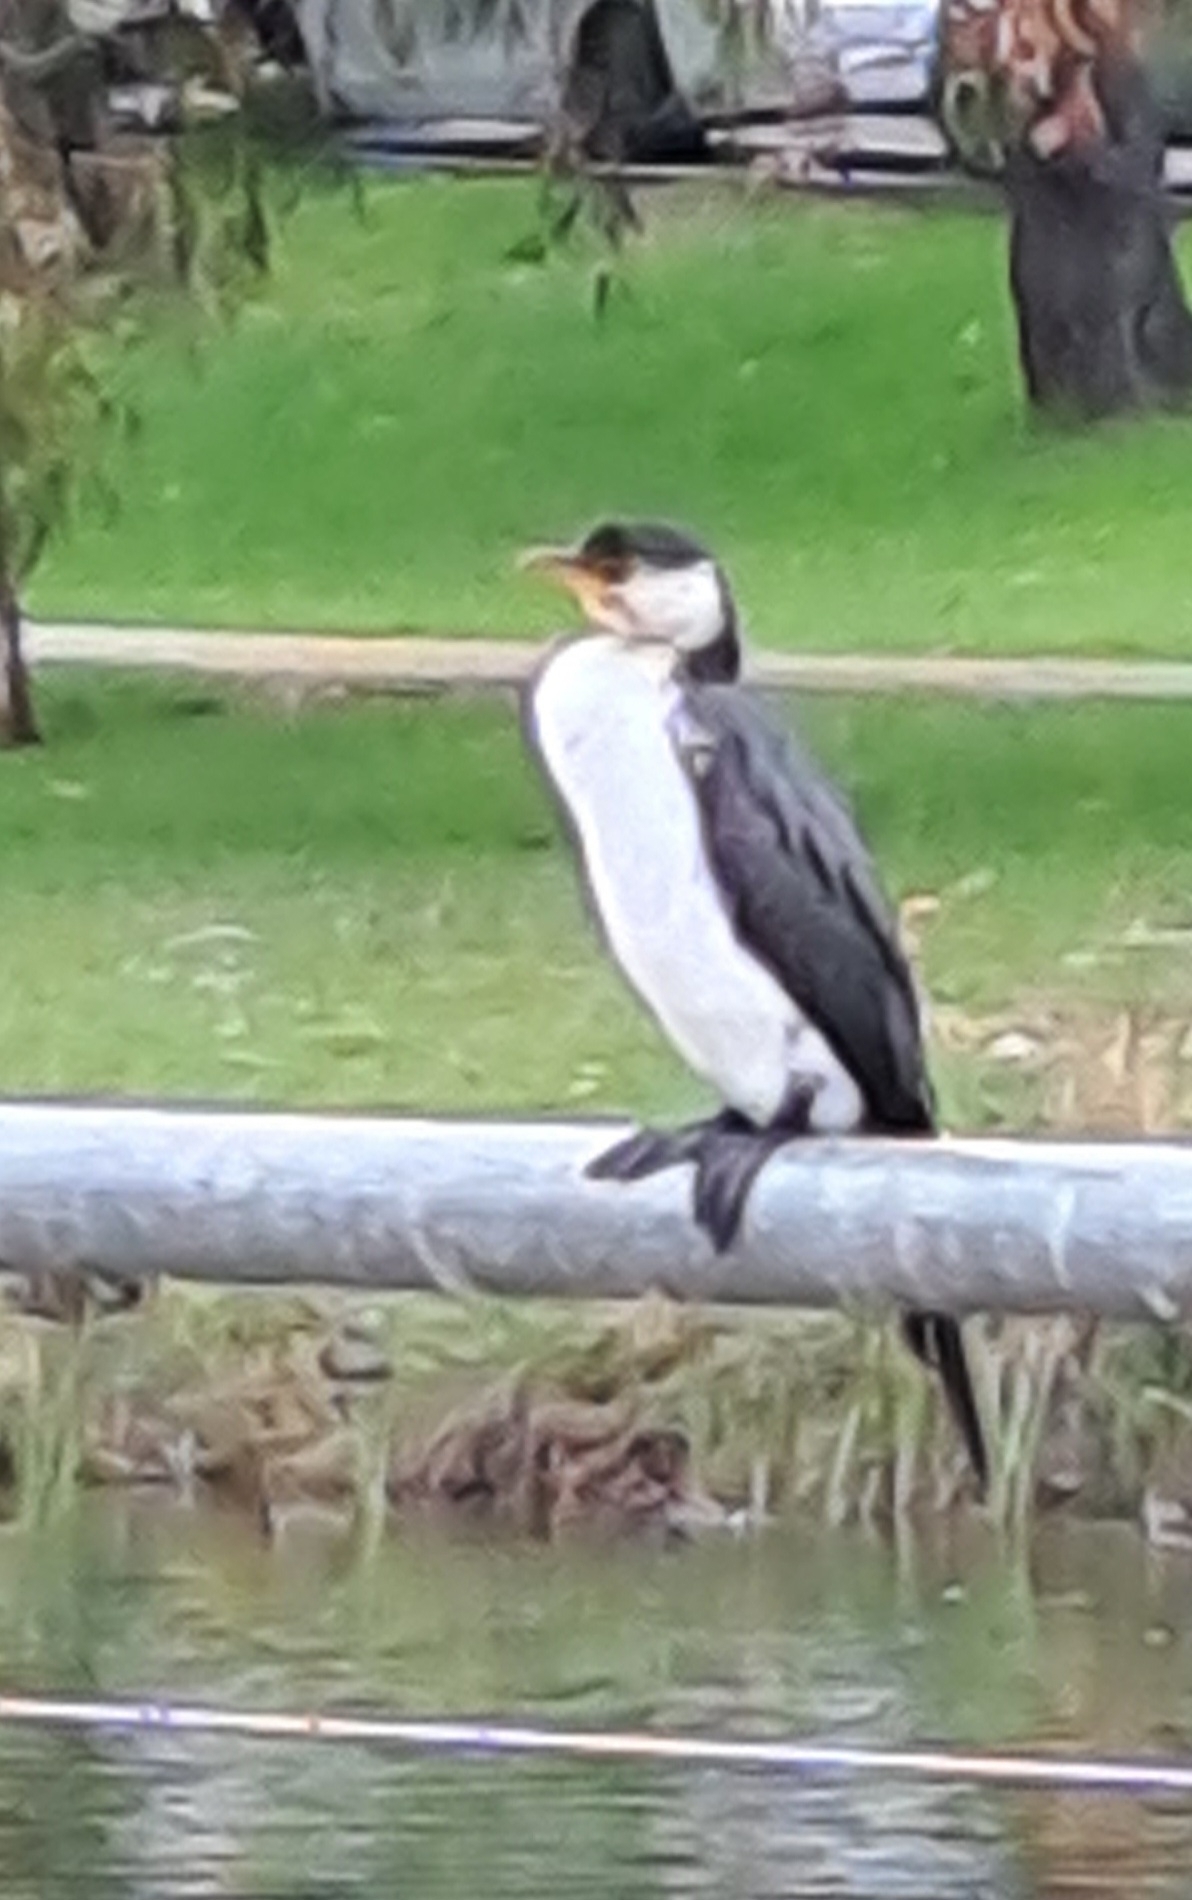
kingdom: Animalia
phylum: Chordata
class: Aves
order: Suliformes
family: Phalacrocoracidae
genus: Microcarbo
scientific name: Microcarbo melanoleucos
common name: Little pied cormorant
